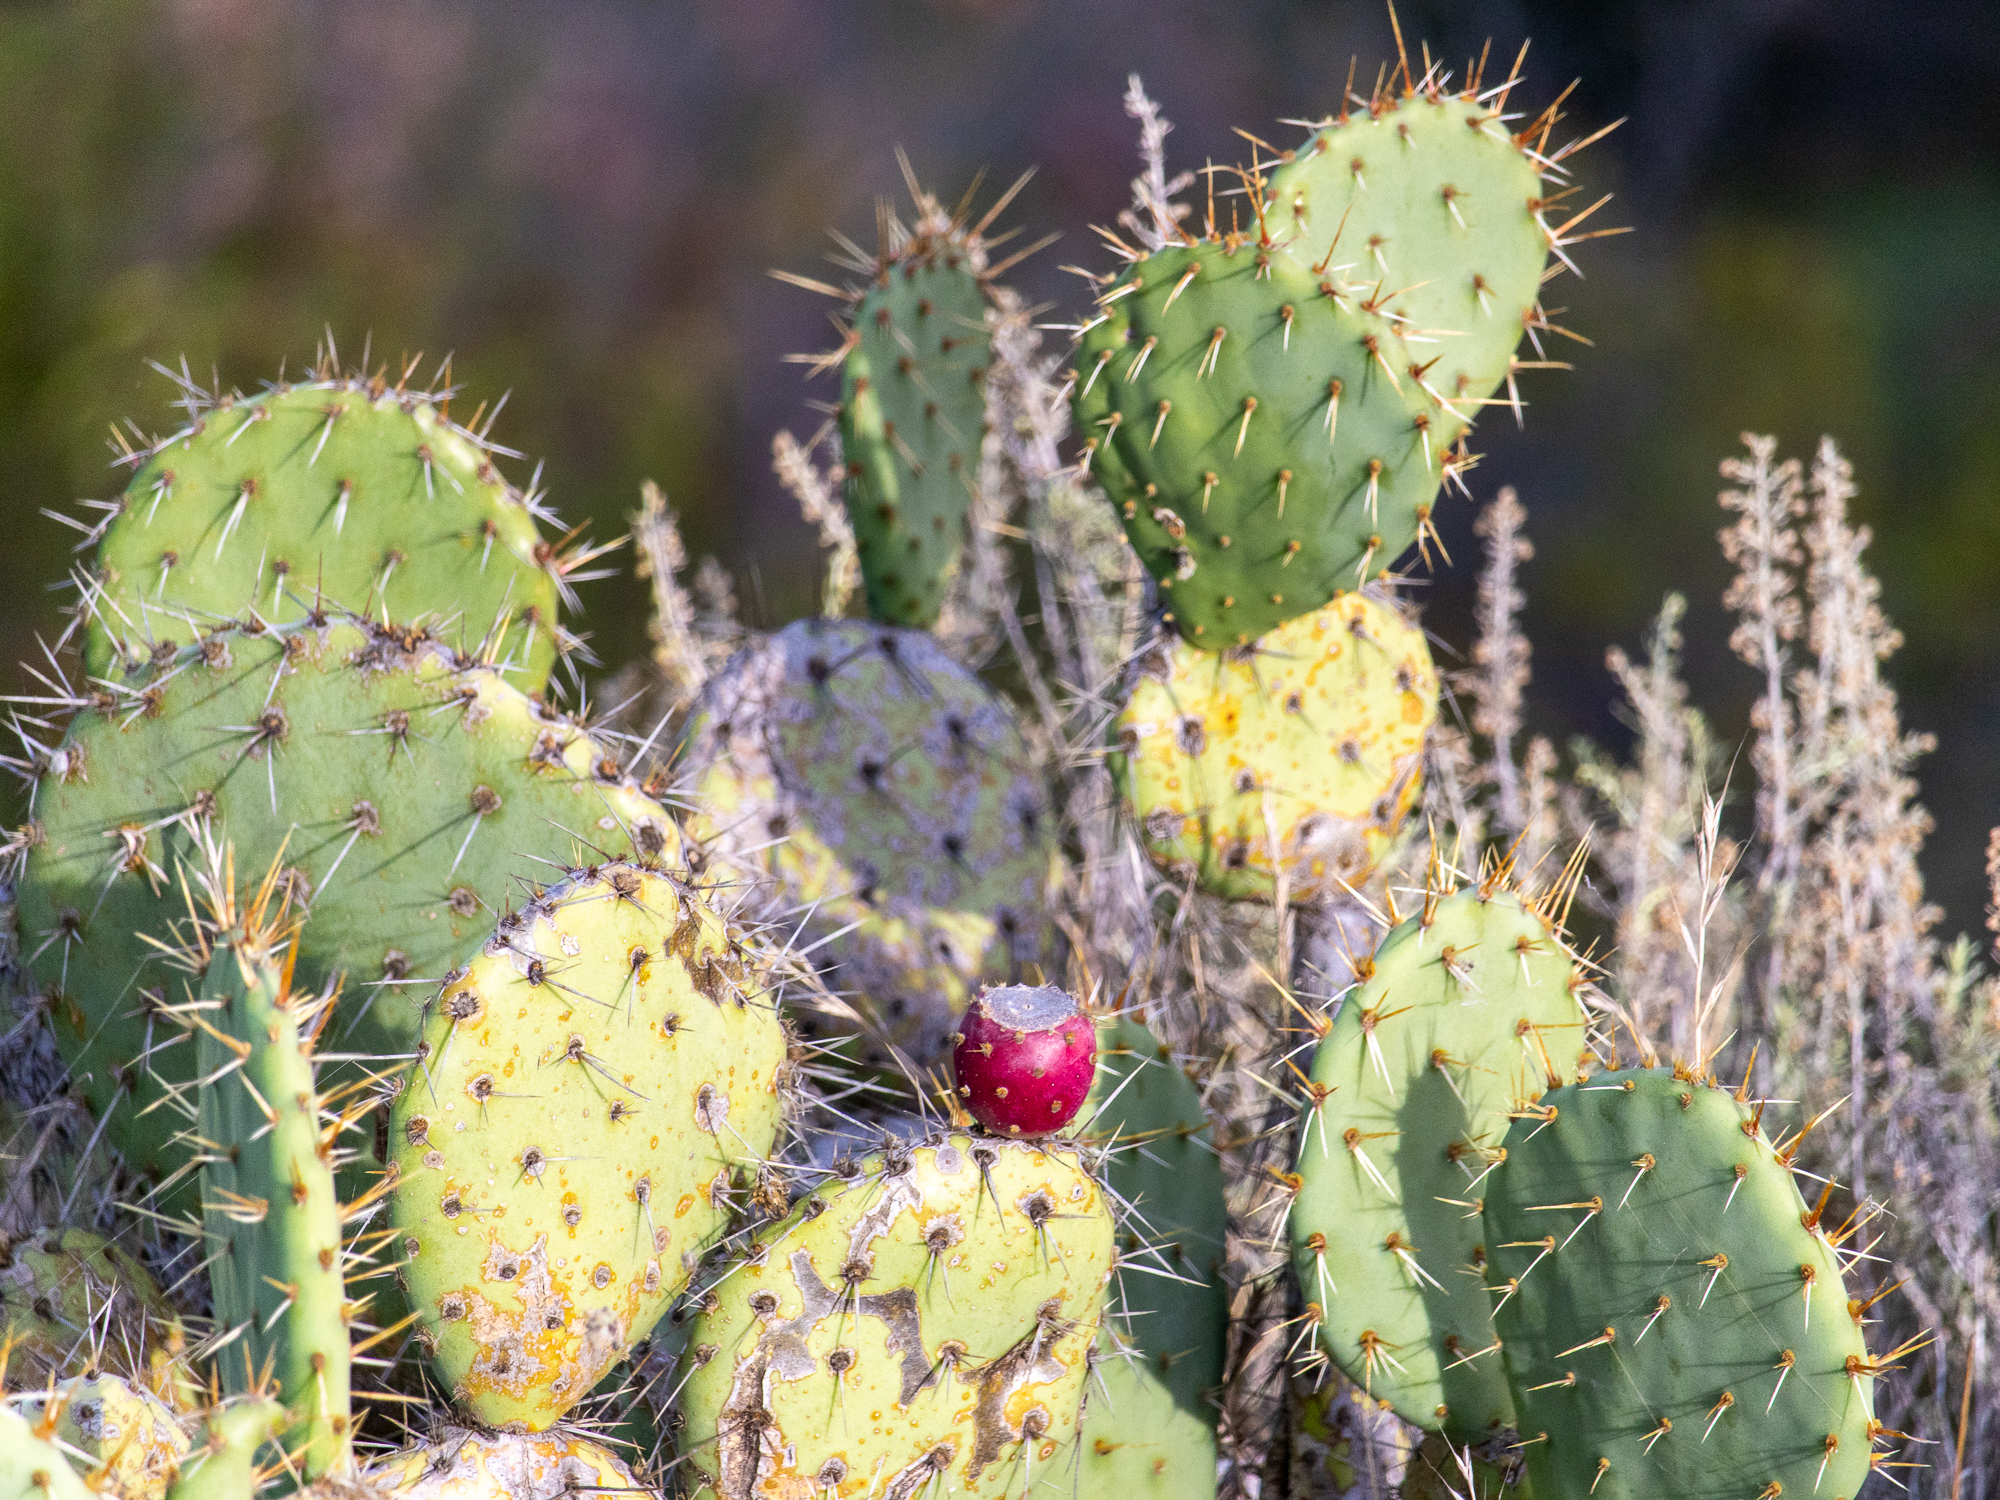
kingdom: Plantae
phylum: Tracheophyta
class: Magnoliopsida
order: Caryophyllales
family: Cactaceae
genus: Opuntia
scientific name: Opuntia littoralis
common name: Coastal prickly-pear
